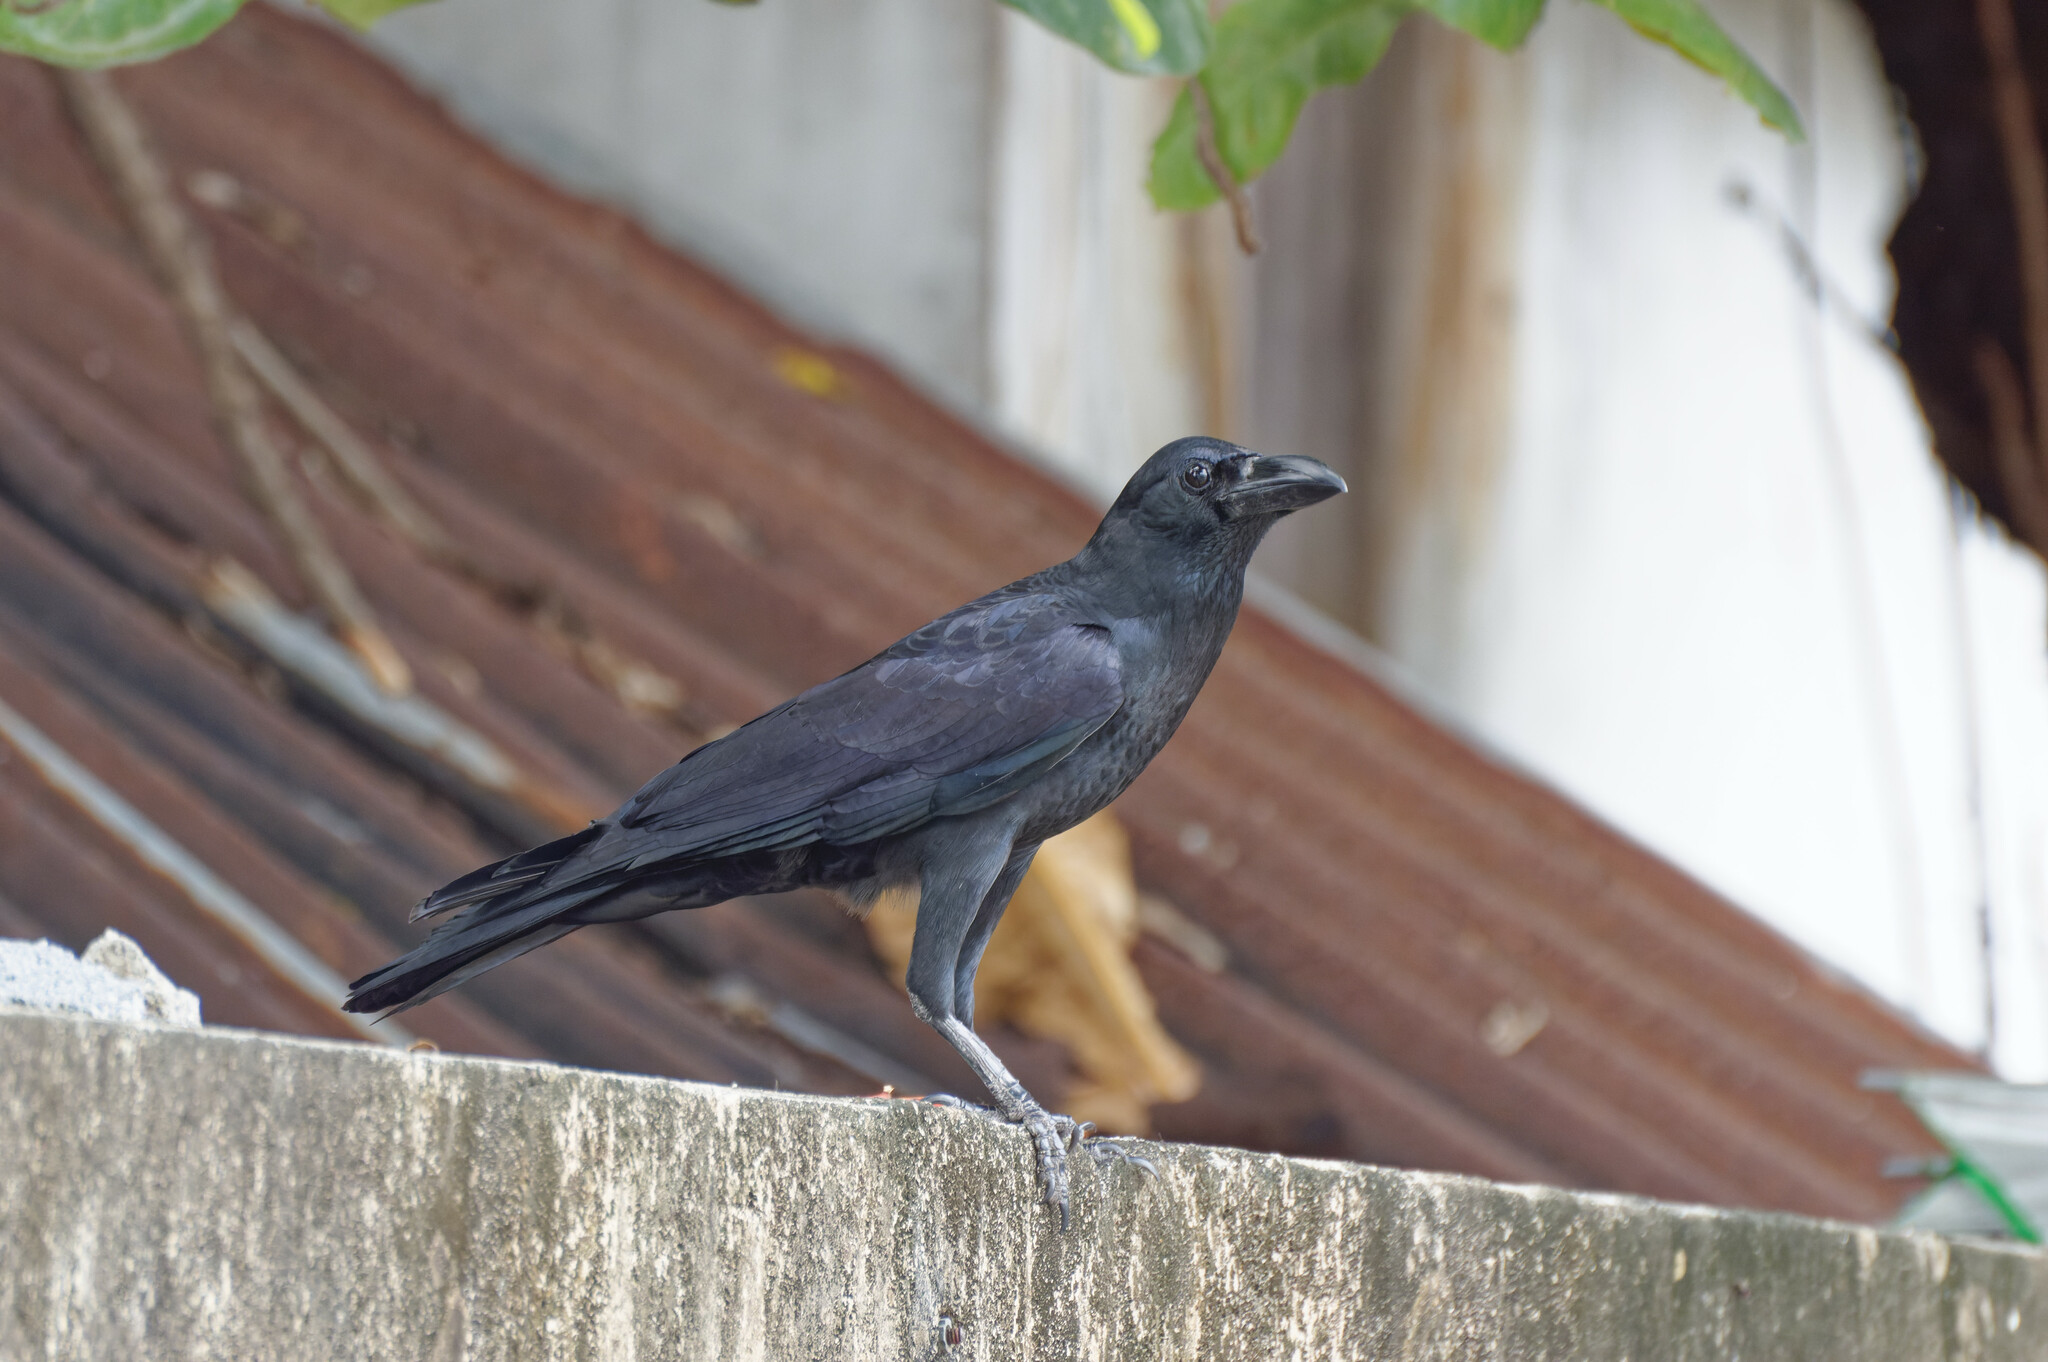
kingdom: Animalia
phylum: Chordata
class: Aves
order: Passeriformes
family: Corvidae
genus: Corvus
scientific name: Corvus macrorhynchos
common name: Large-billed crow
